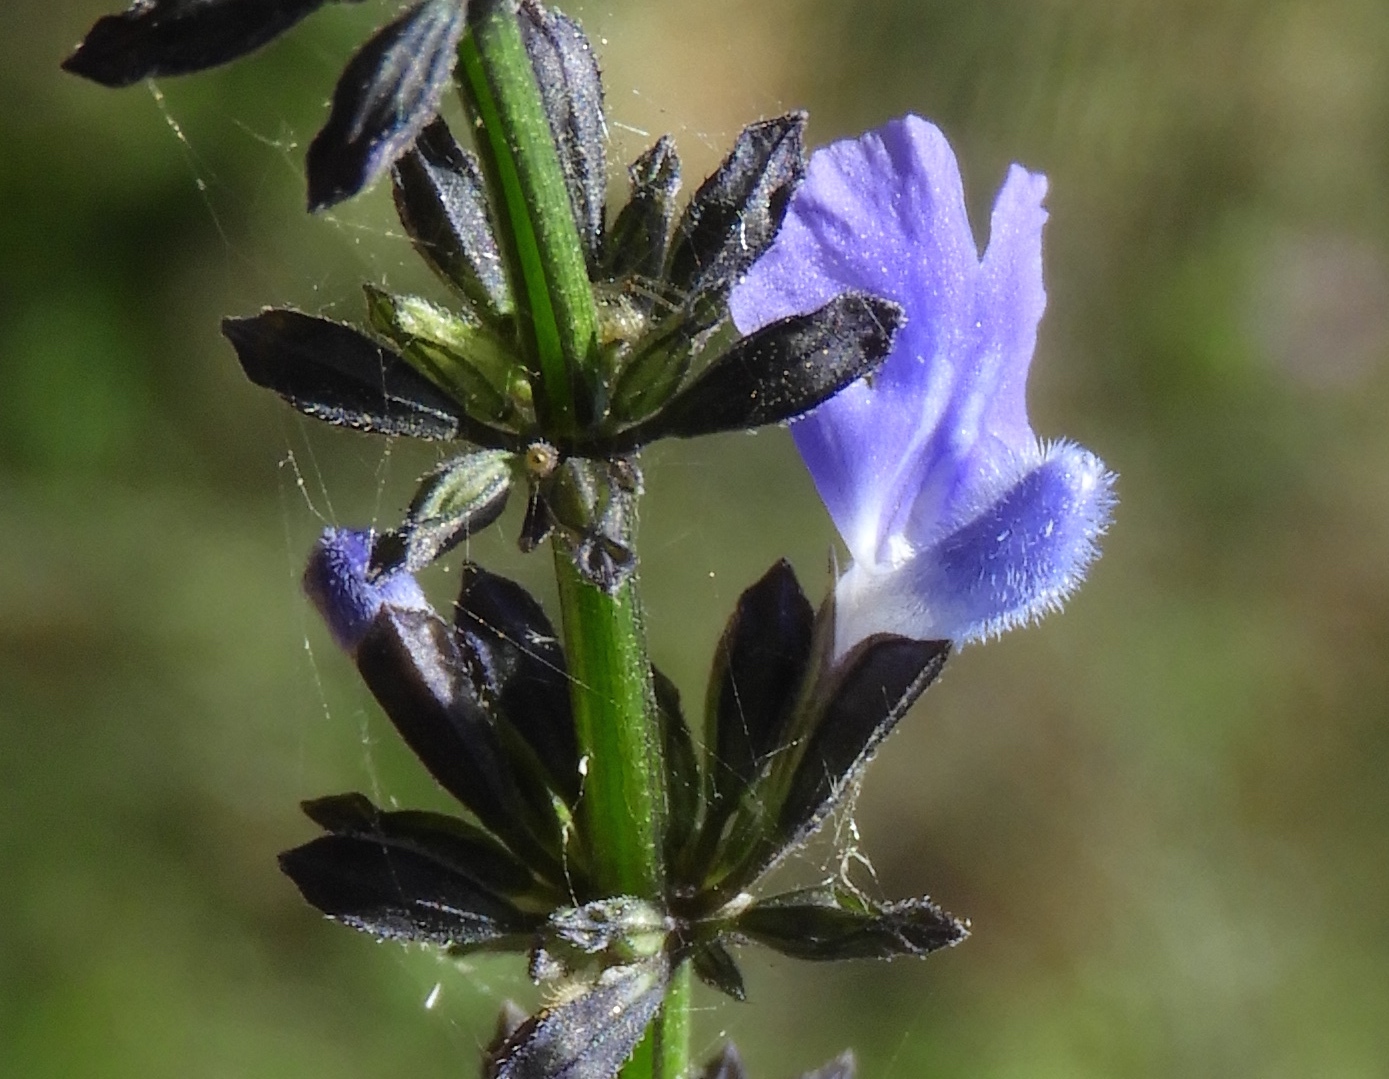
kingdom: Plantae
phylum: Tracheophyta
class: Magnoliopsida
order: Lamiales
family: Lamiaceae
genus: Salvia
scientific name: Salvia languidula
